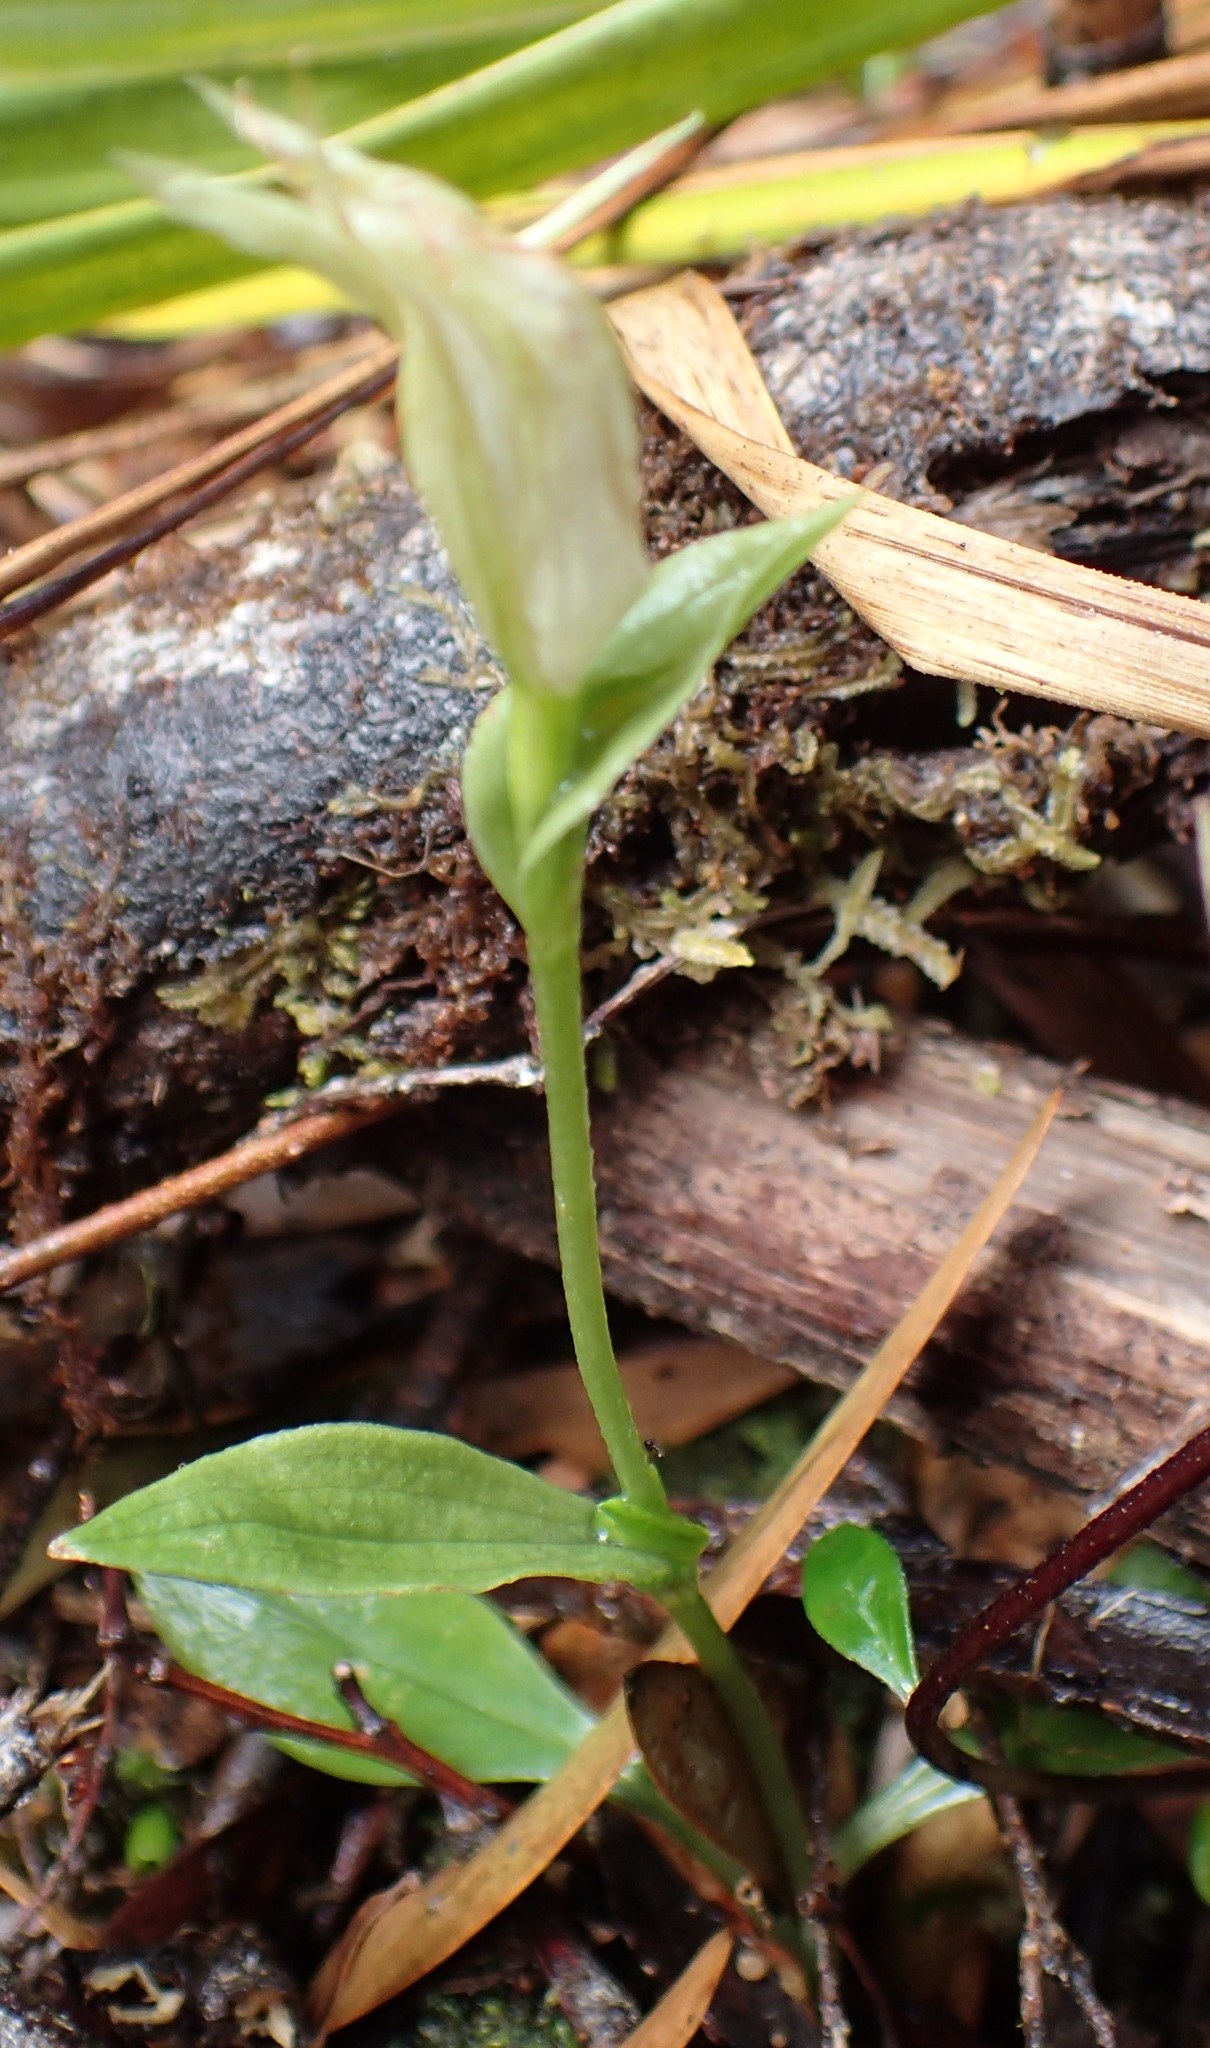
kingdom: Plantae
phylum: Tracheophyta
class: Liliopsida
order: Asparagales
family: Orchidaceae
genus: Pterostylis
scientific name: Pterostylis scabrida
